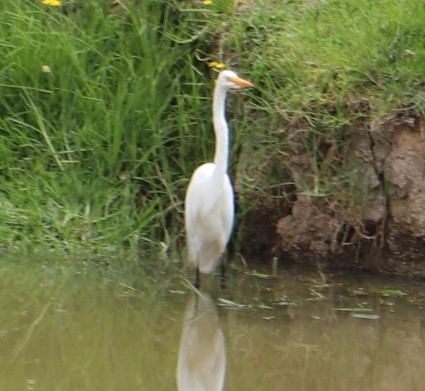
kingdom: Animalia
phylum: Chordata
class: Aves
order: Pelecaniformes
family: Ardeidae
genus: Ardea
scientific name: Ardea alba
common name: Great egret
